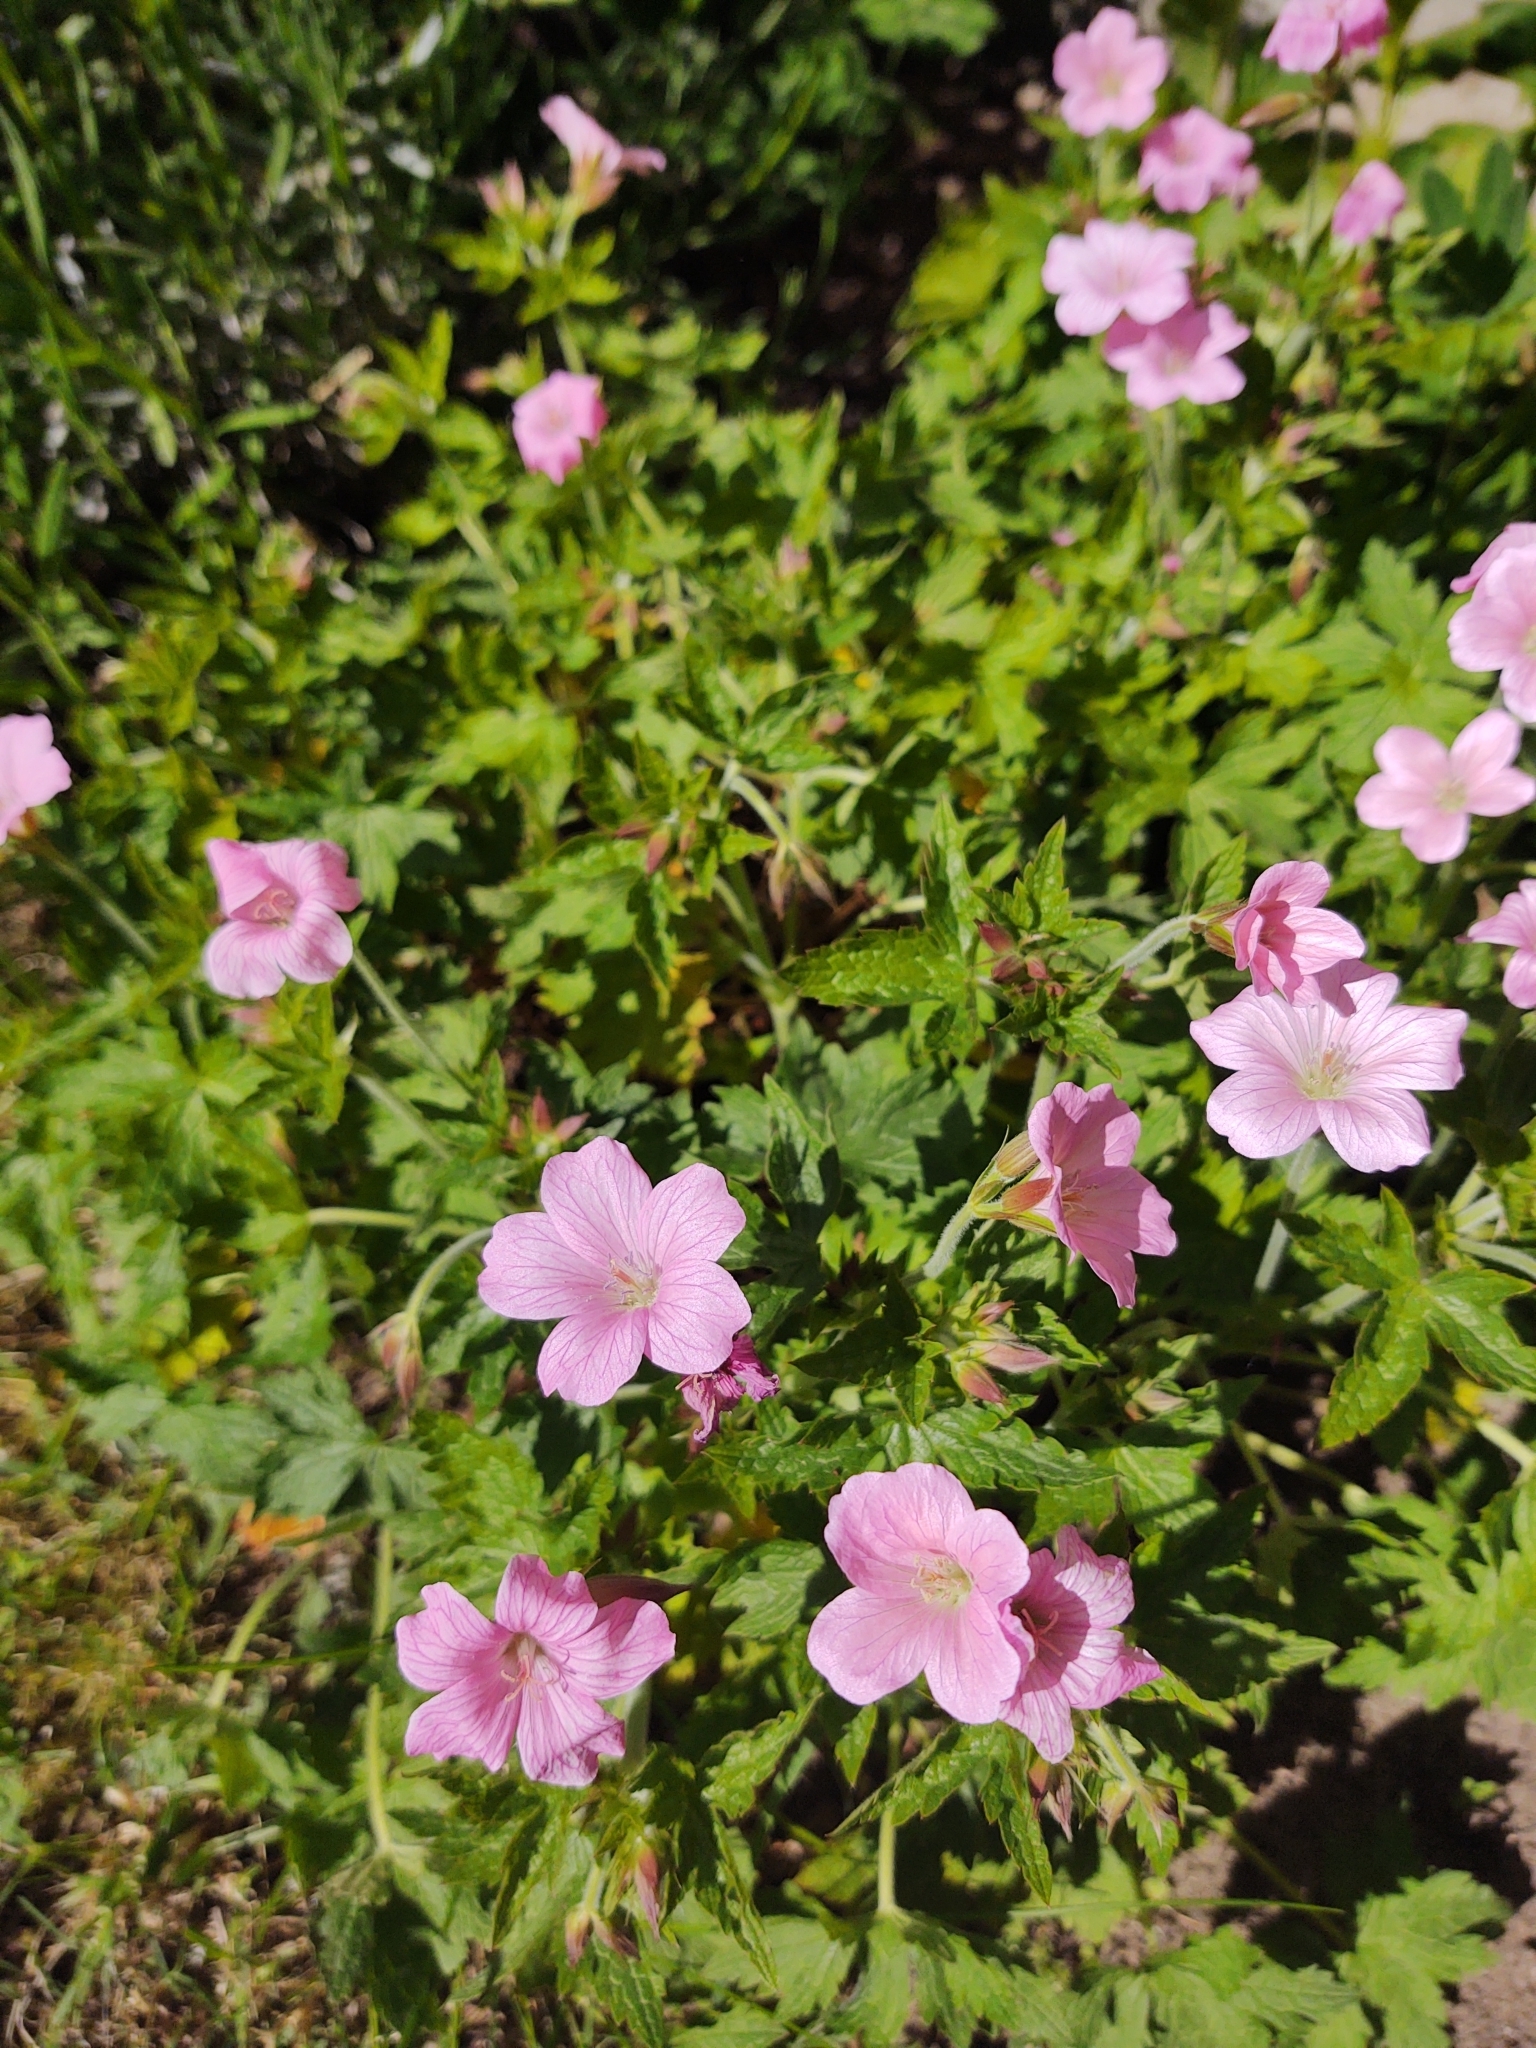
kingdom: Plantae
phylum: Tracheophyta
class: Magnoliopsida
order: Geraniales
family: Geraniaceae
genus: Geranium
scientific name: Geranium endressii
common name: French crane's-bill
